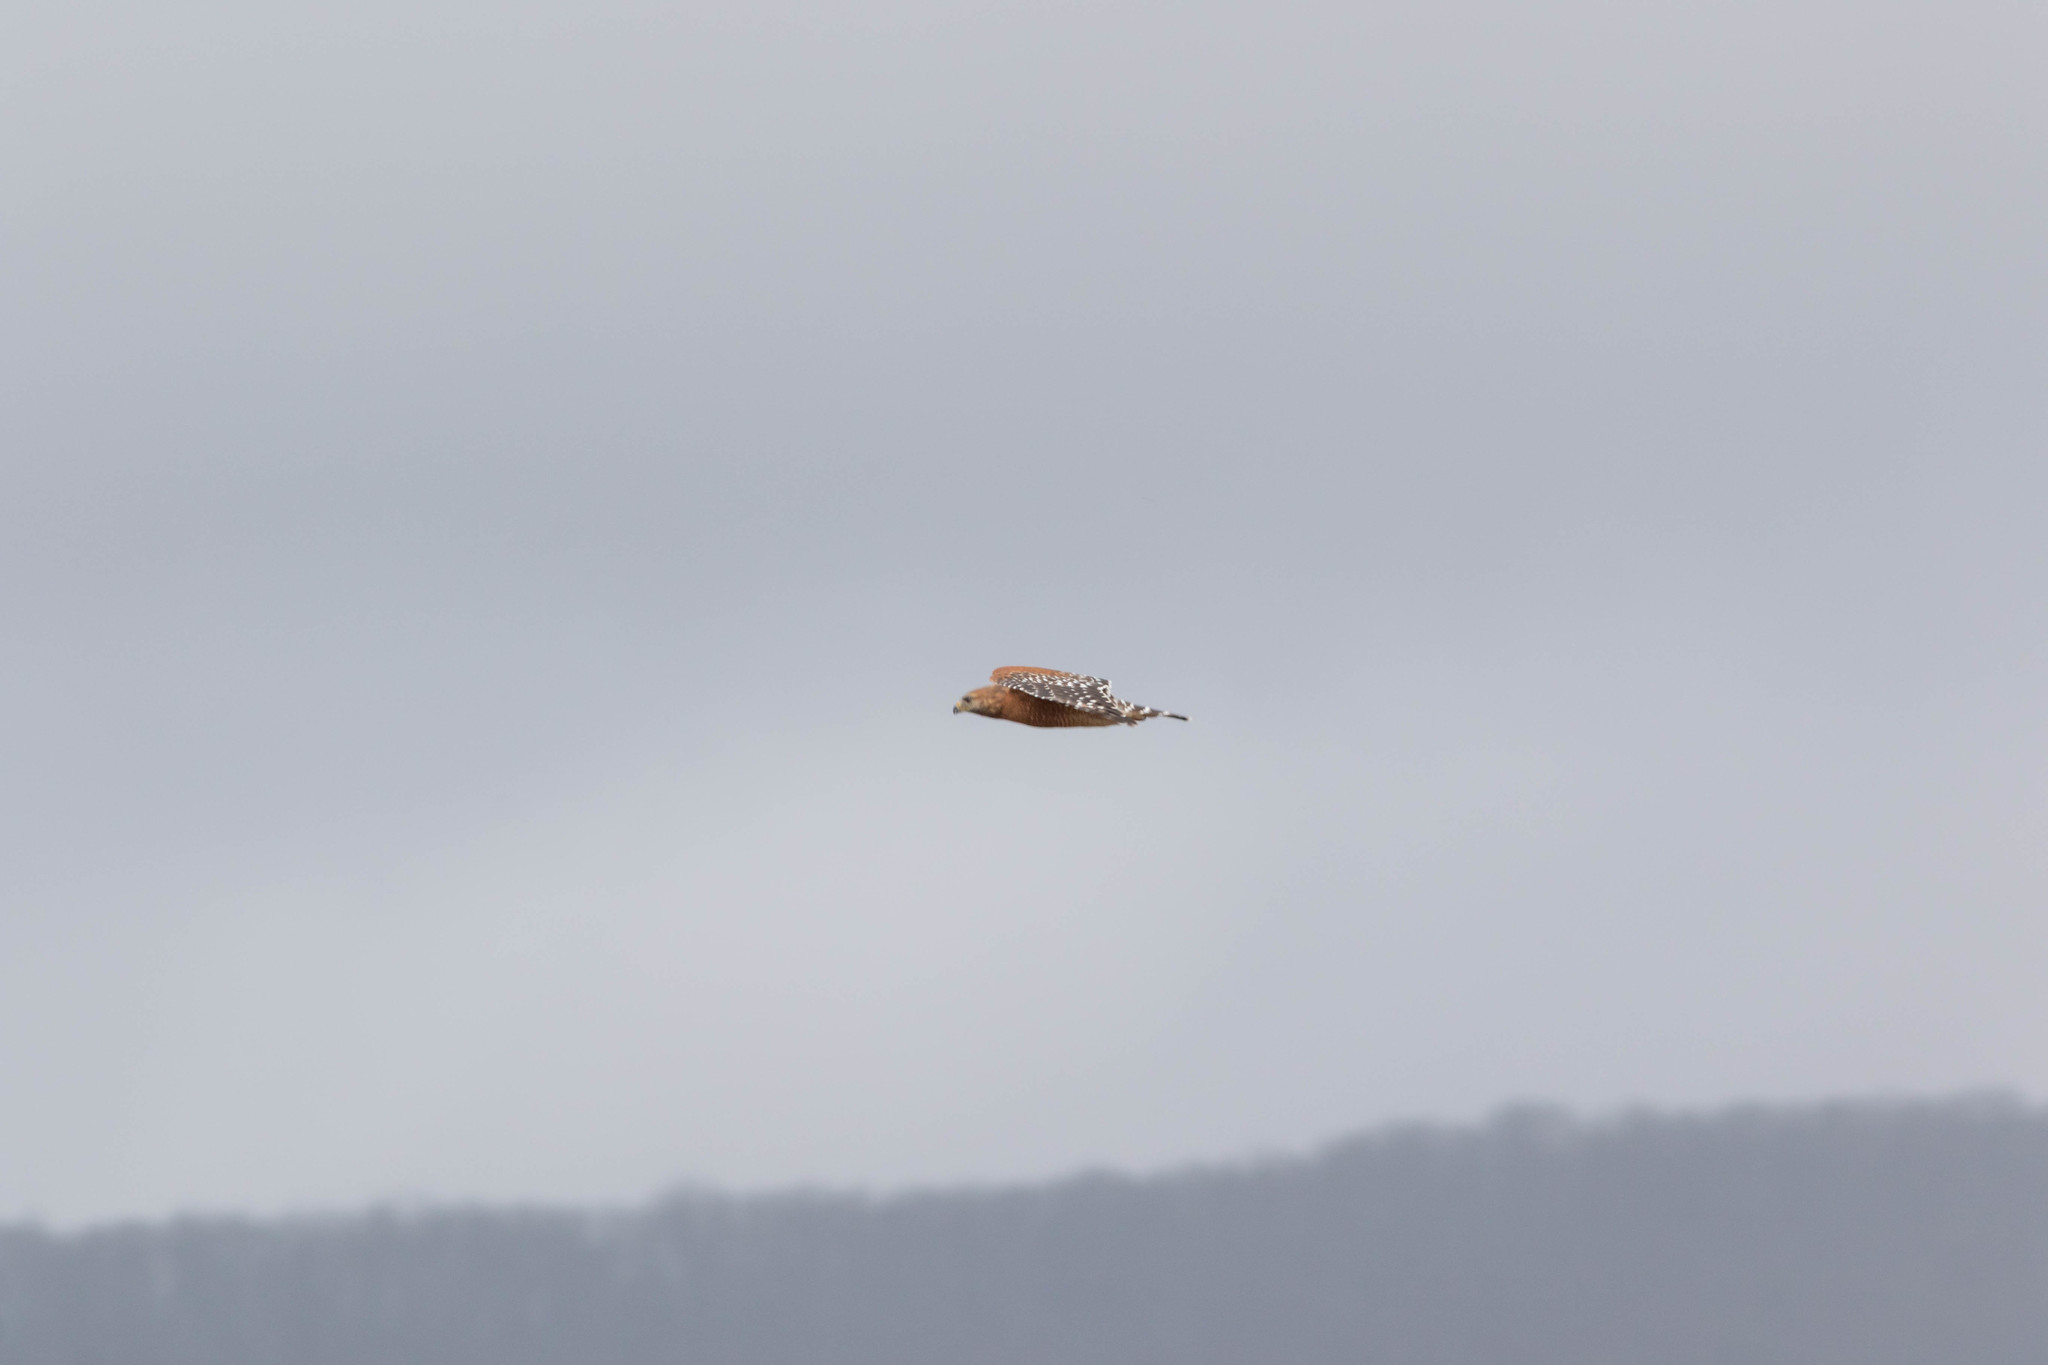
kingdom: Animalia
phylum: Chordata
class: Aves
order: Accipitriformes
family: Accipitridae
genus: Buteo
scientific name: Buteo lineatus
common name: Red-shouldered hawk
